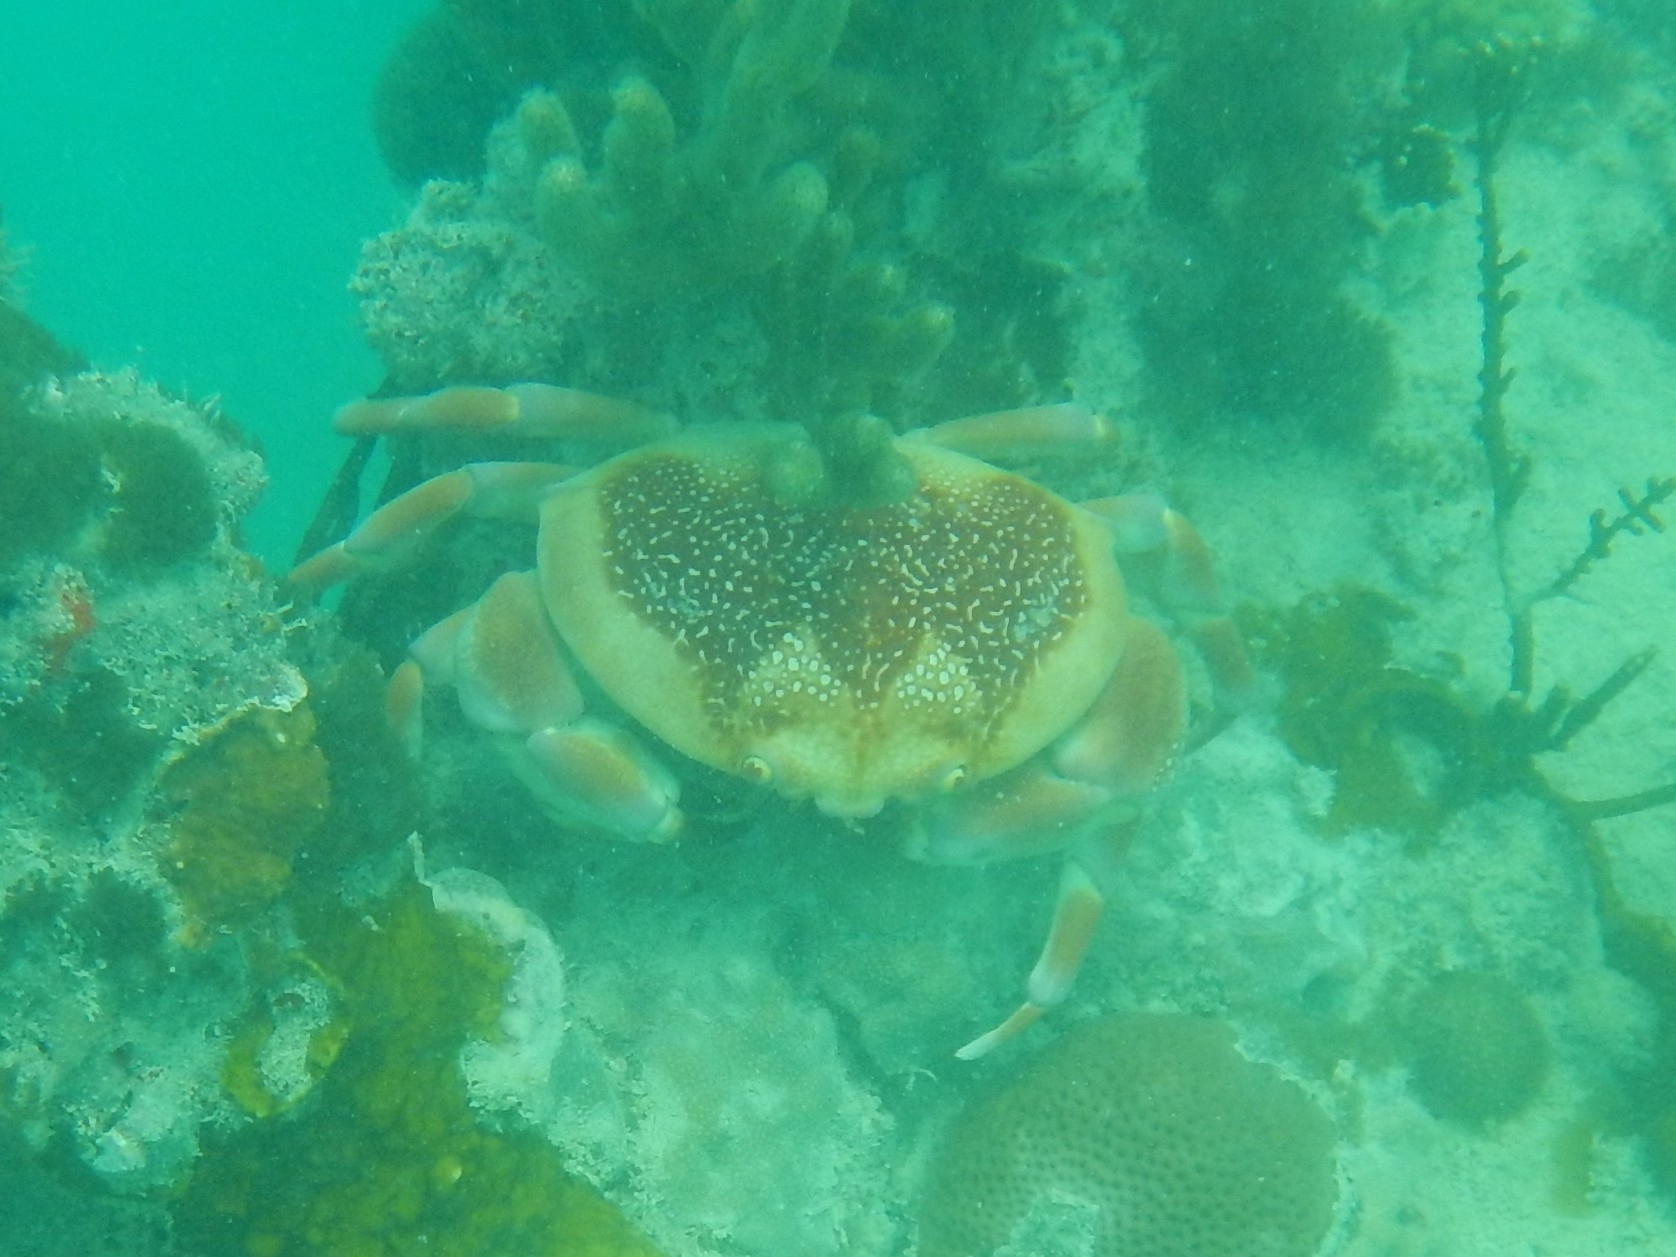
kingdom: Animalia
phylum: Arthropoda
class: Malacostraca
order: Decapoda
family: Carpiliidae
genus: Carpilius
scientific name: Carpilius corallinus
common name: Batwing coral crab
